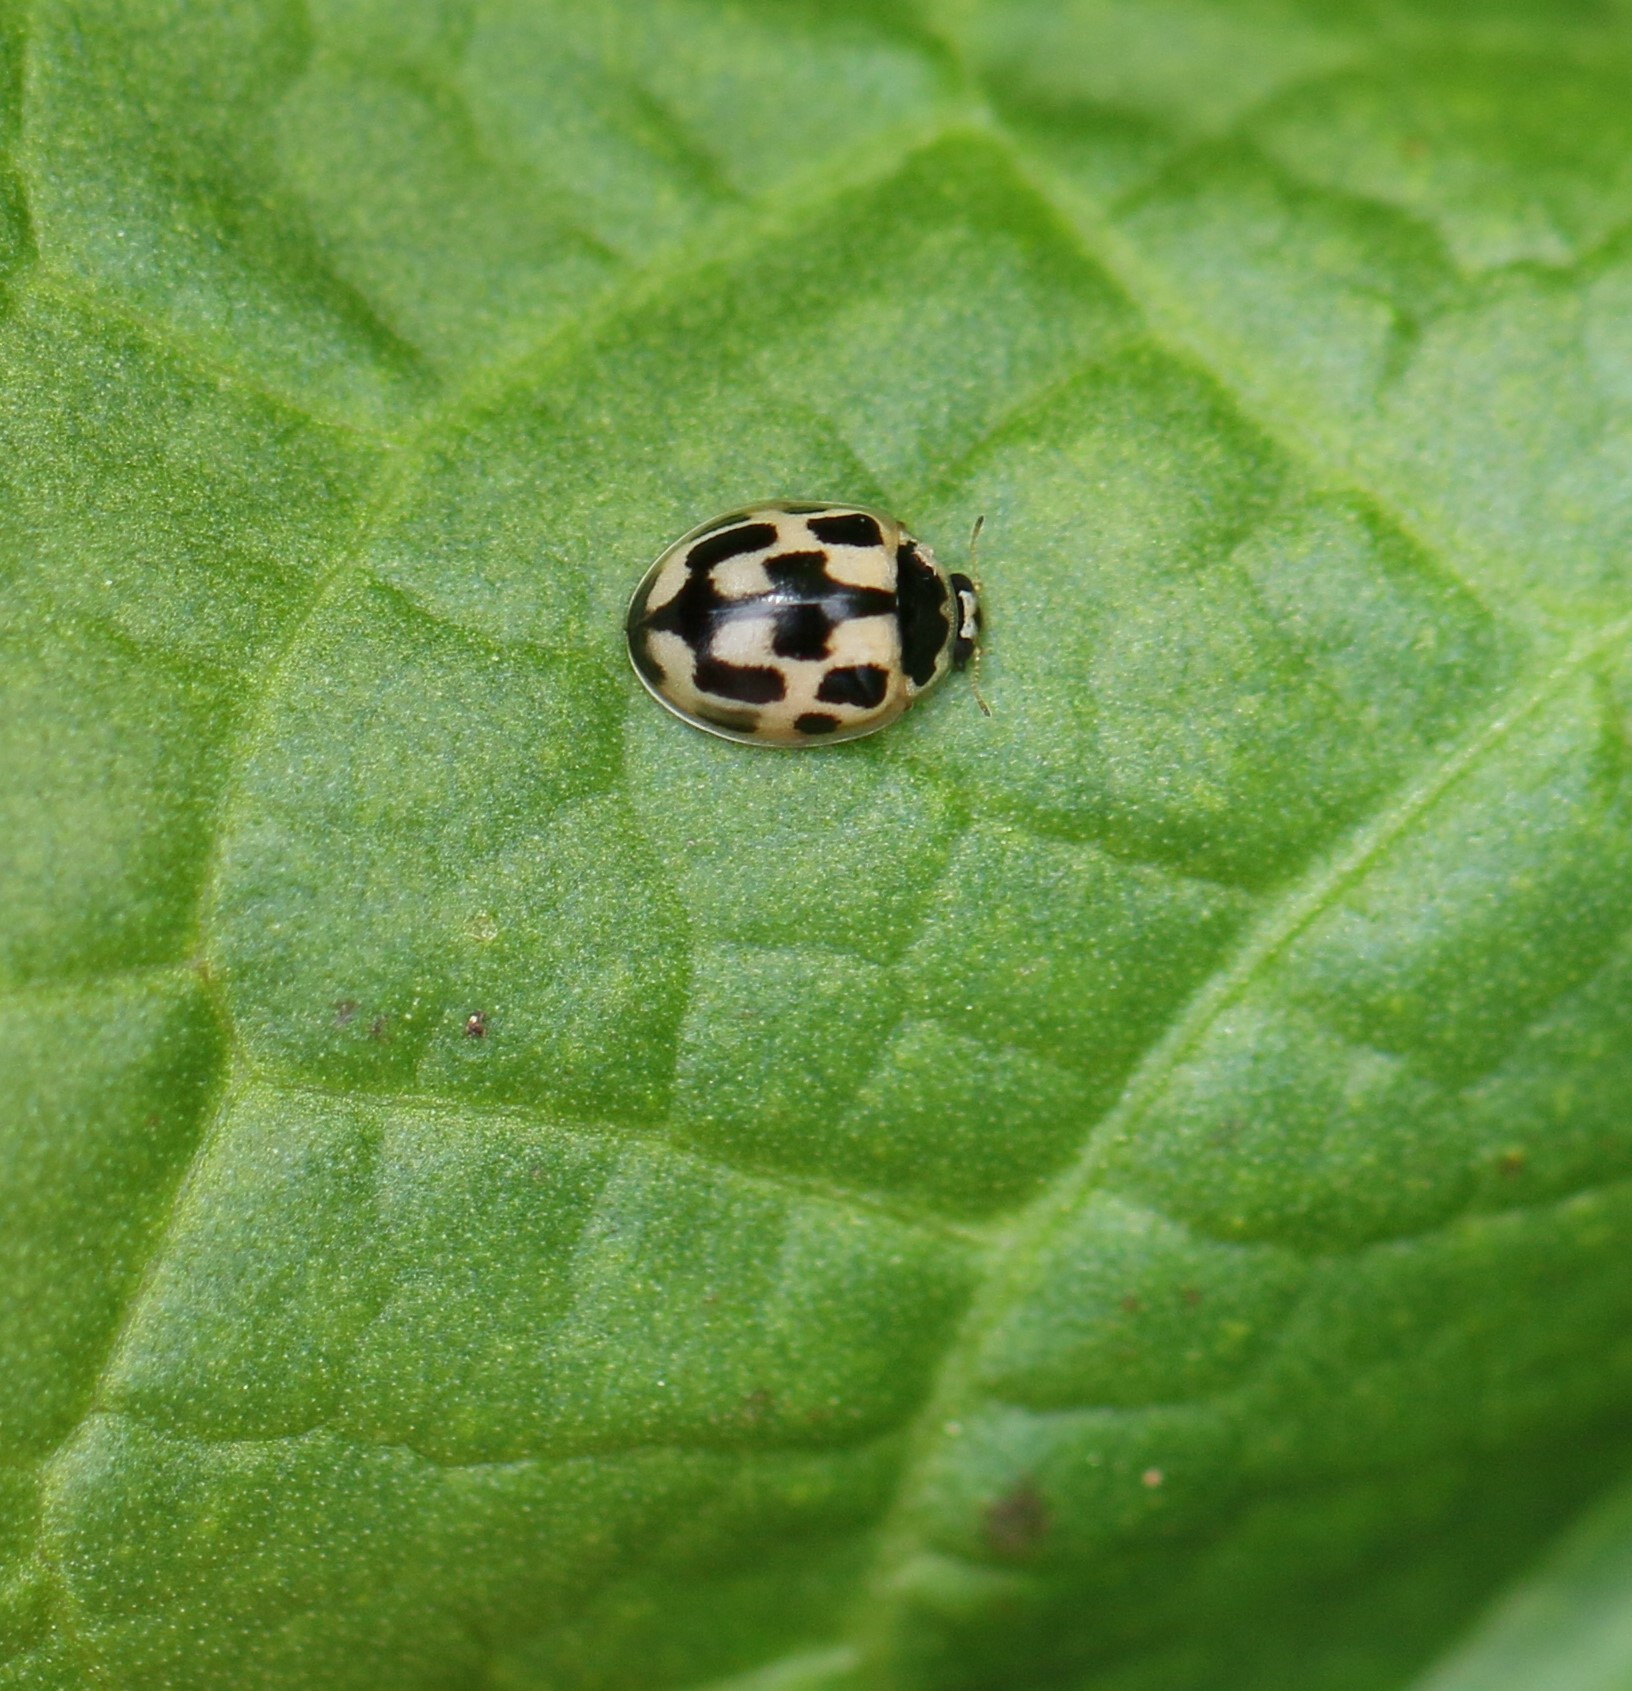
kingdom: Animalia
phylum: Arthropoda
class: Insecta
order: Coleoptera
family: Coccinellidae
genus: Propylaea
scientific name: Propylaea quatuordecimpunctata
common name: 14-spotted ladybird beetle
